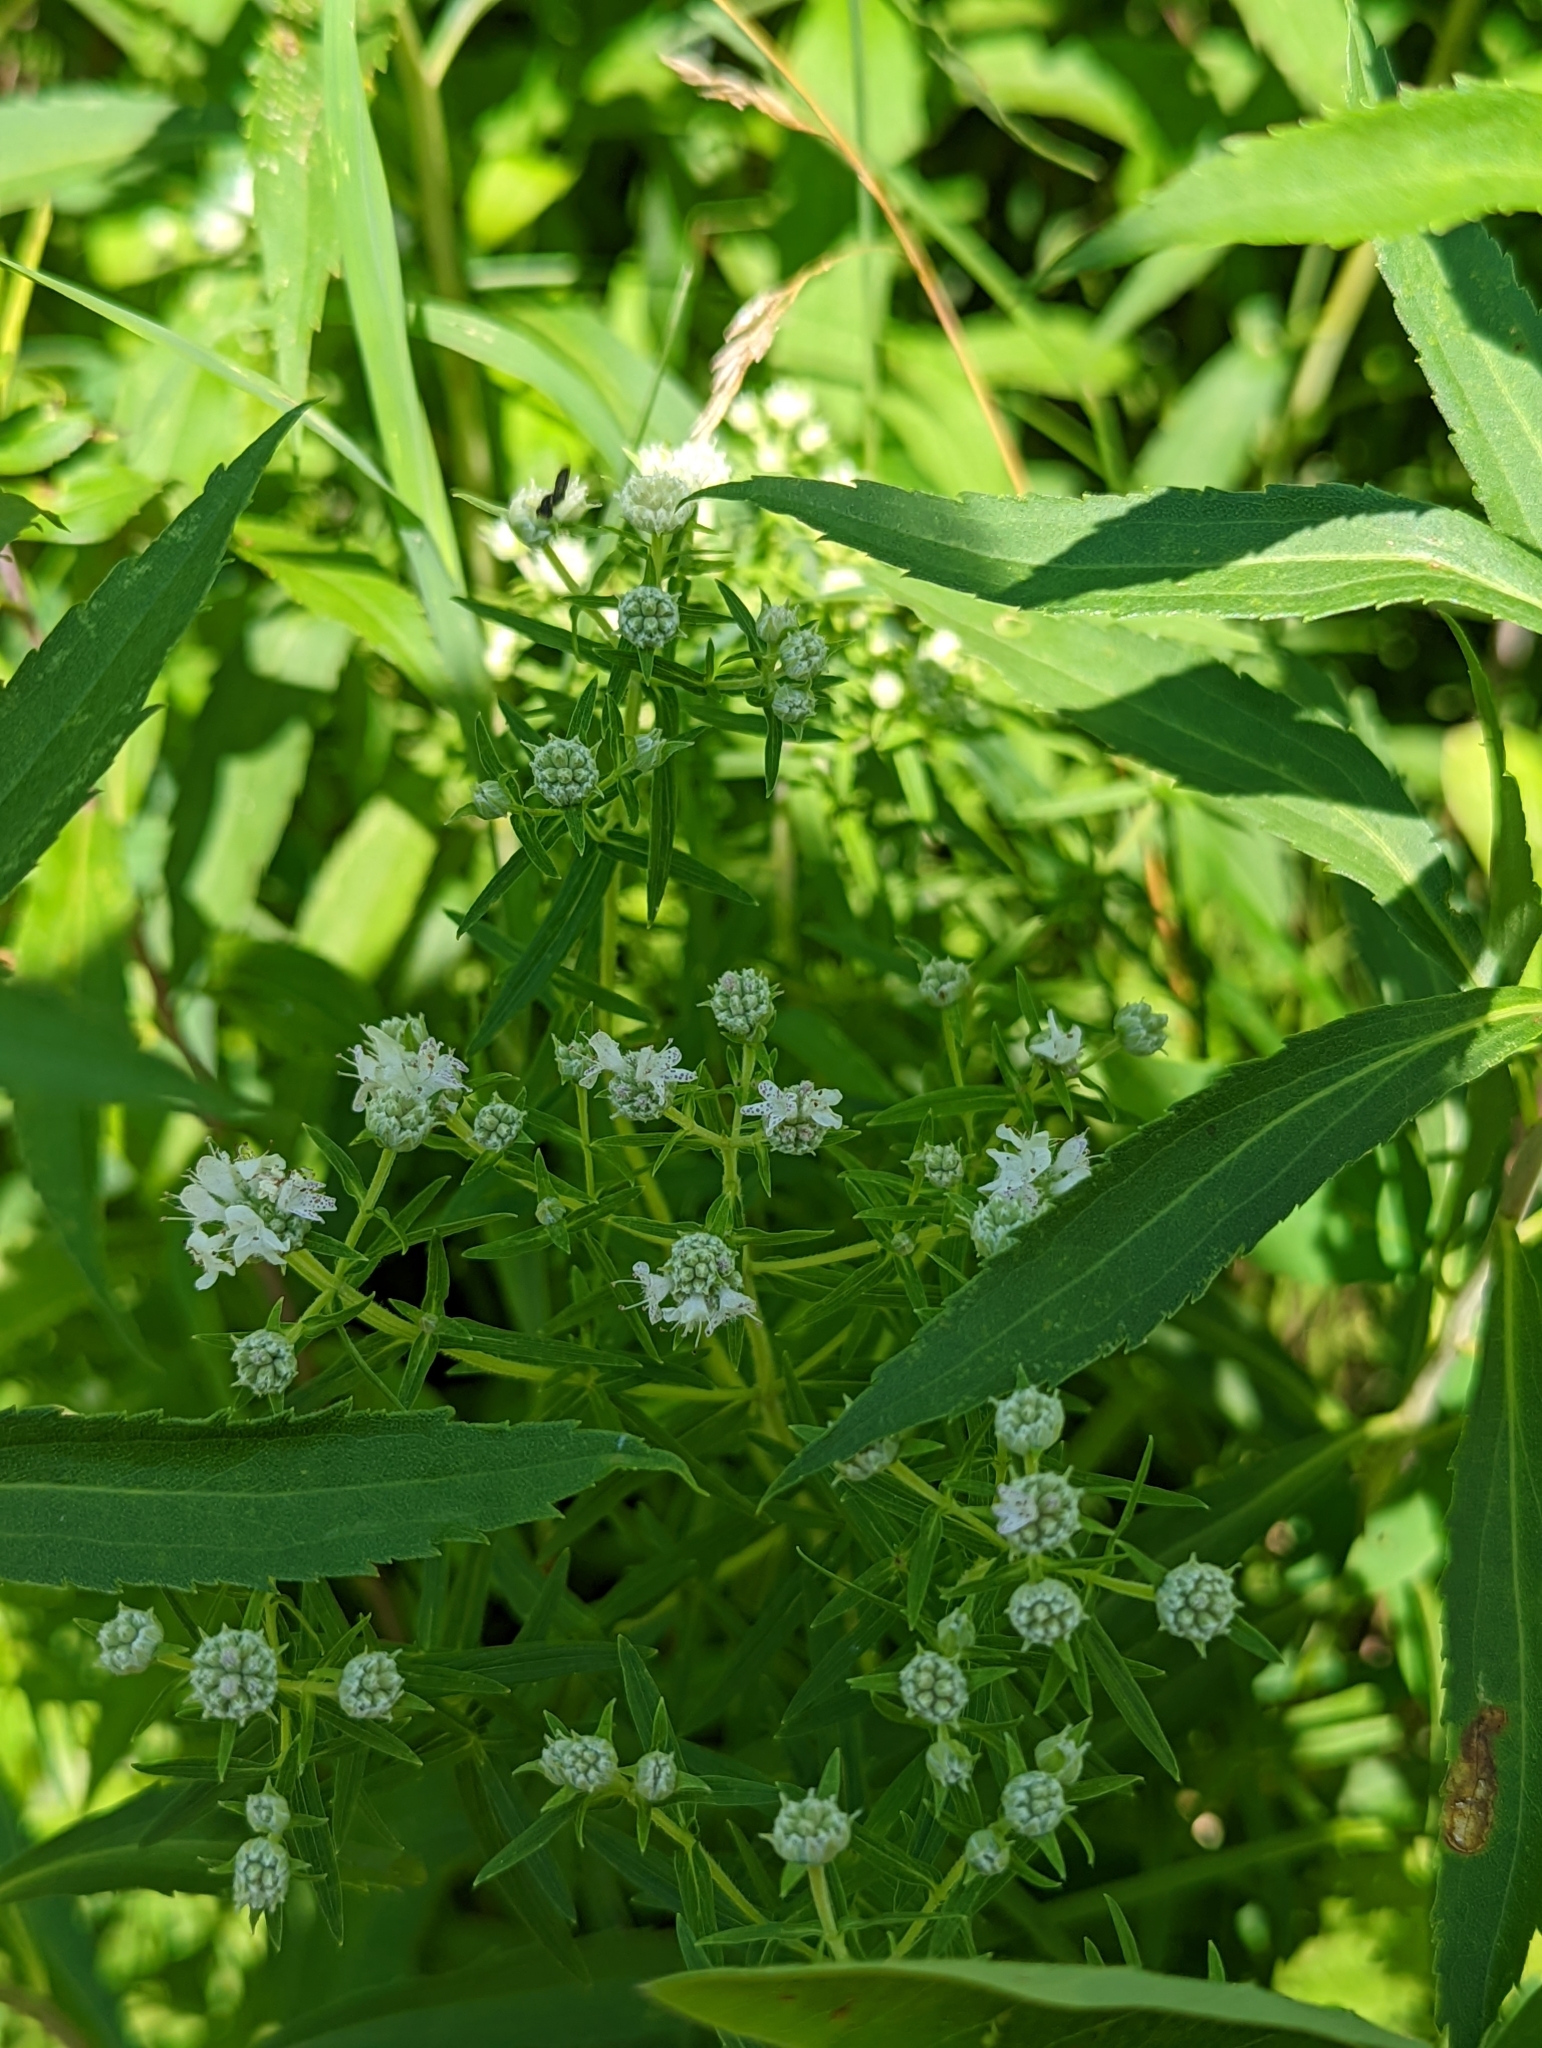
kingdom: Plantae
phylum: Tracheophyta
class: Magnoliopsida
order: Lamiales
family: Lamiaceae
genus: Pycnanthemum
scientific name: Pycnanthemum virginianum
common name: Virginia mountain-mint
